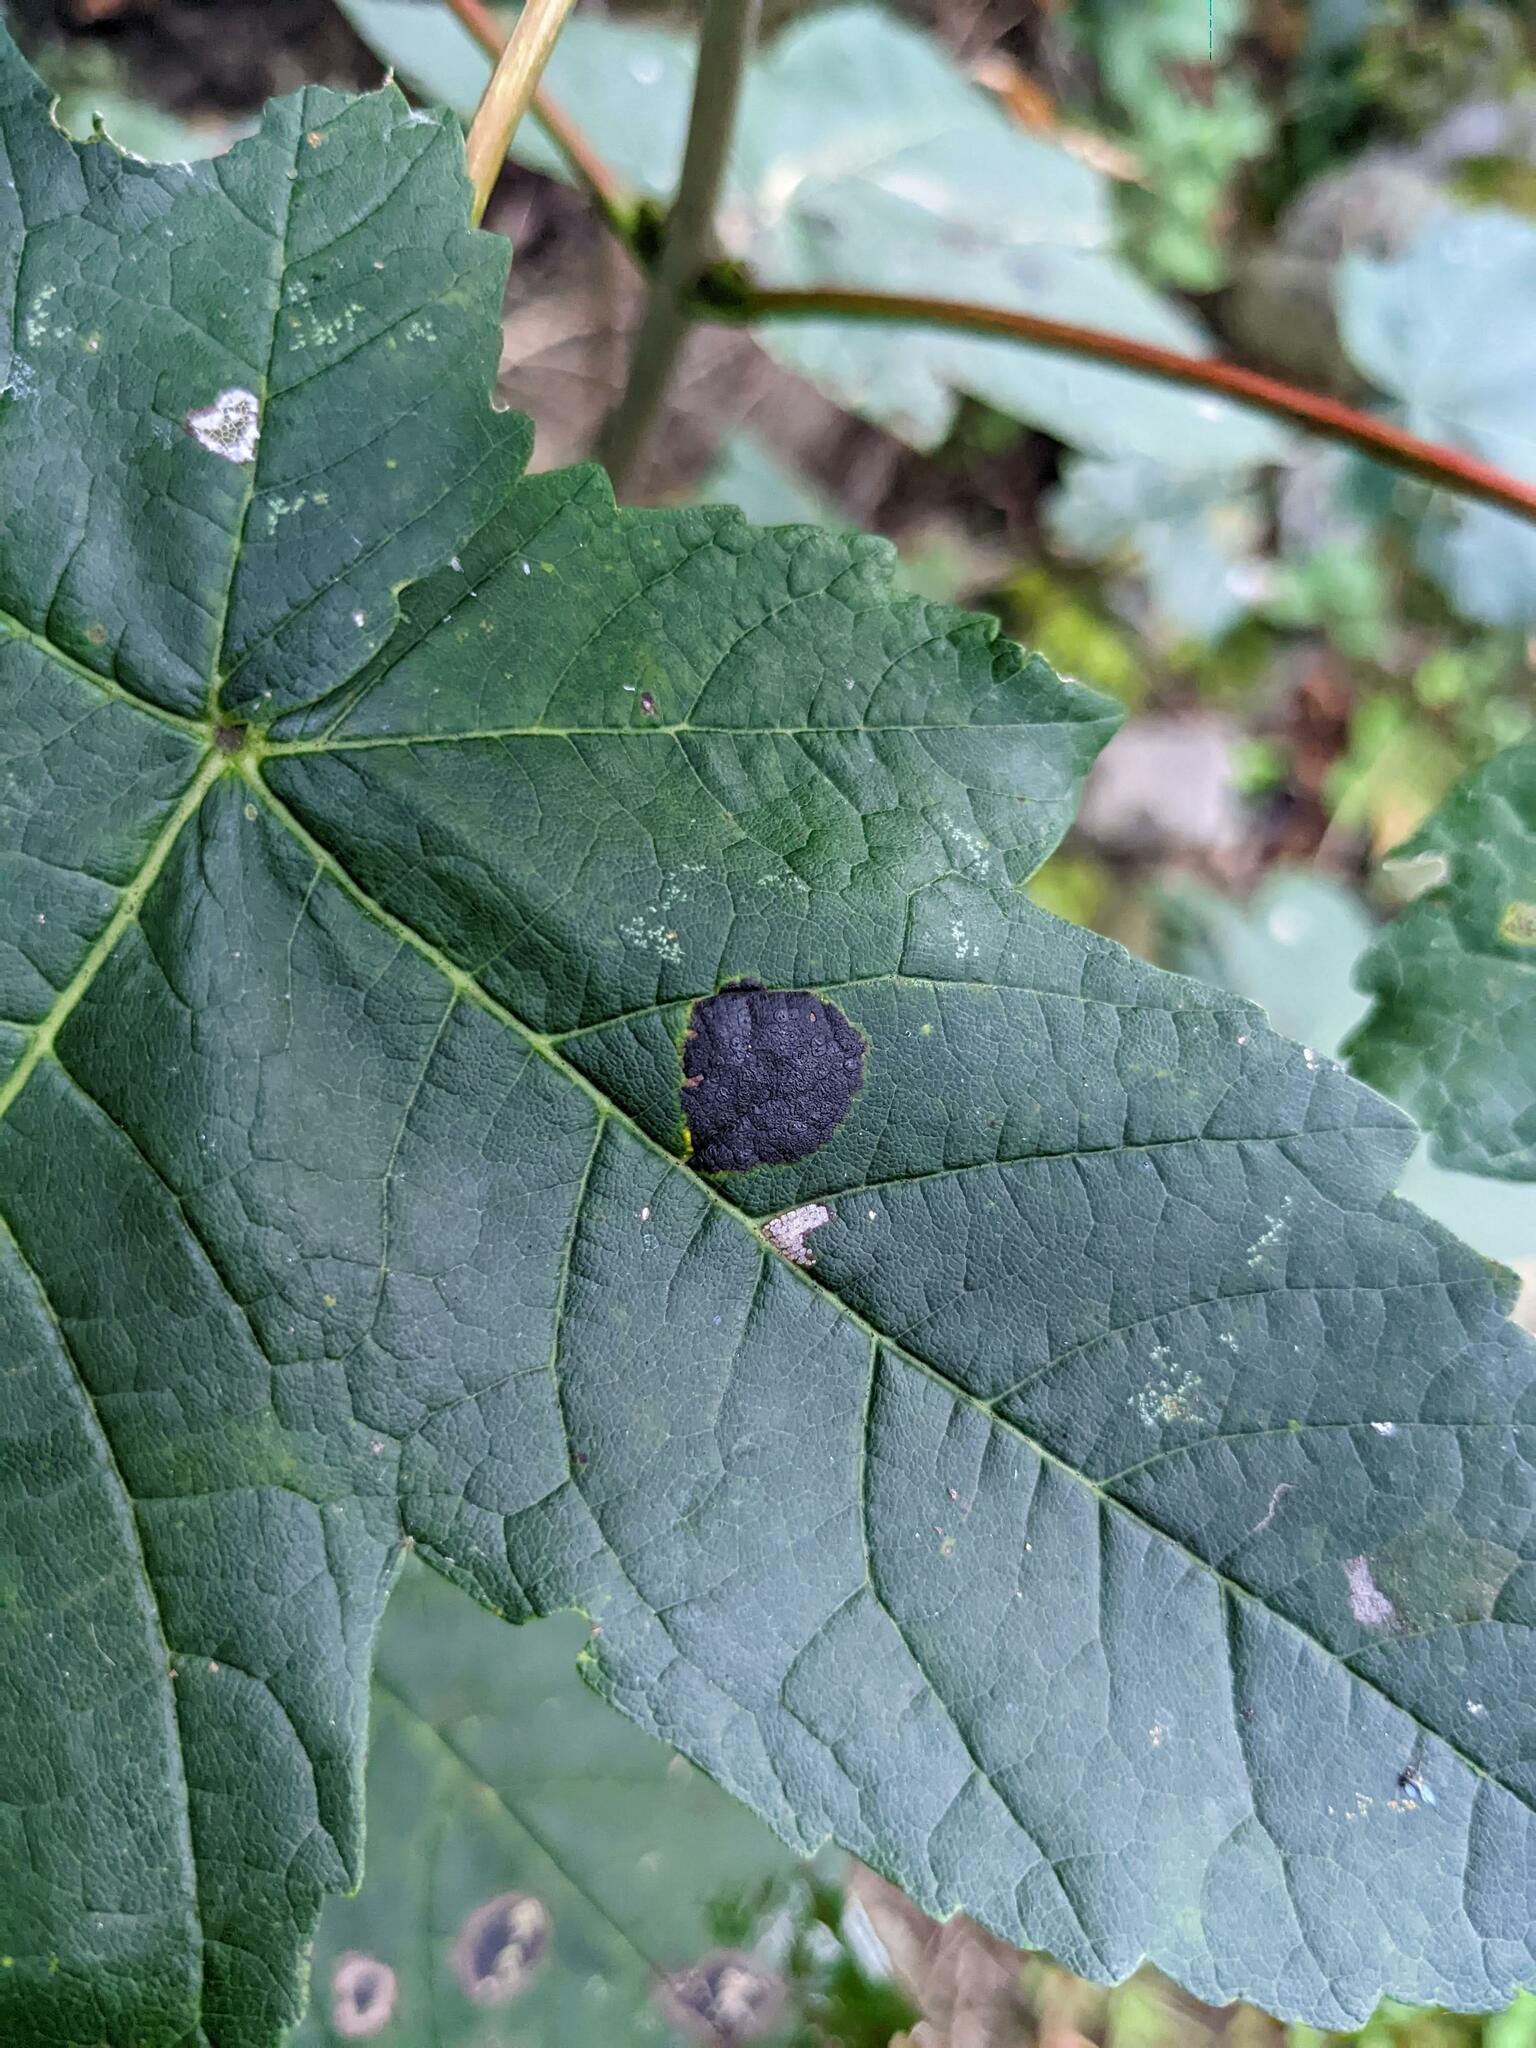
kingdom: Fungi
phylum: Ascomycota
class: Leotiomycetes
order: Rhytismatales
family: Rhytismataceae
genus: Rhytisma
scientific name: Rhytisma acerinum
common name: European tar spot
